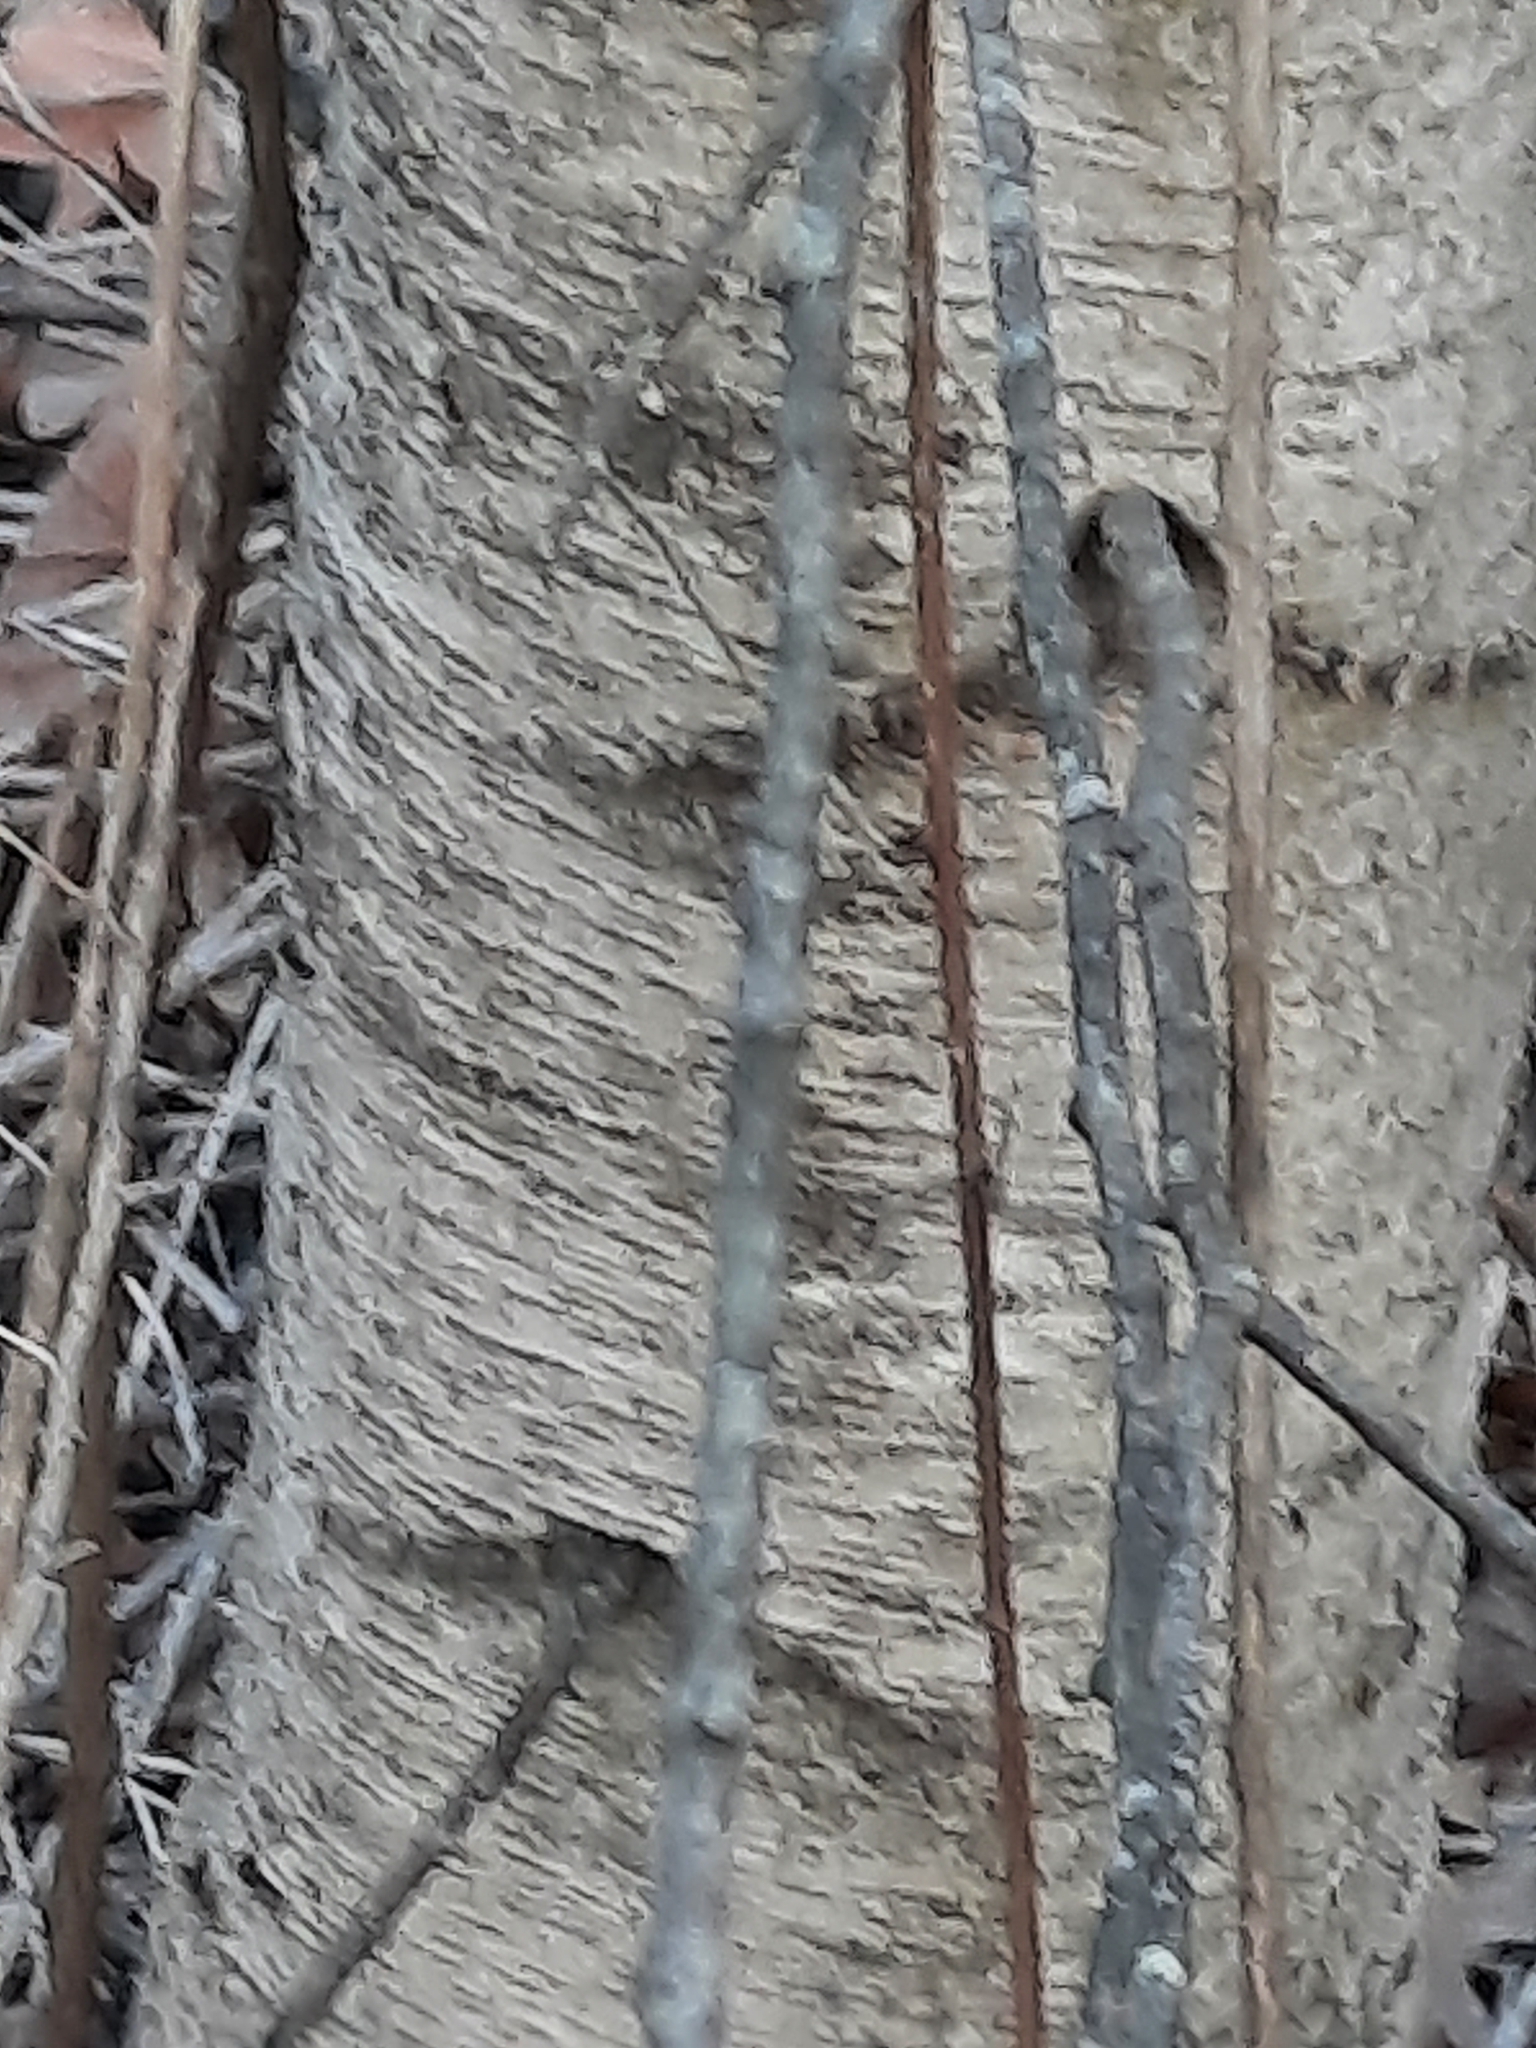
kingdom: Plantae
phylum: Tracheophyta
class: Magnoliopsida
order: Fagales
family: Betulaceae
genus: Betula
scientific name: Betula populifolia
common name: Fire birch
